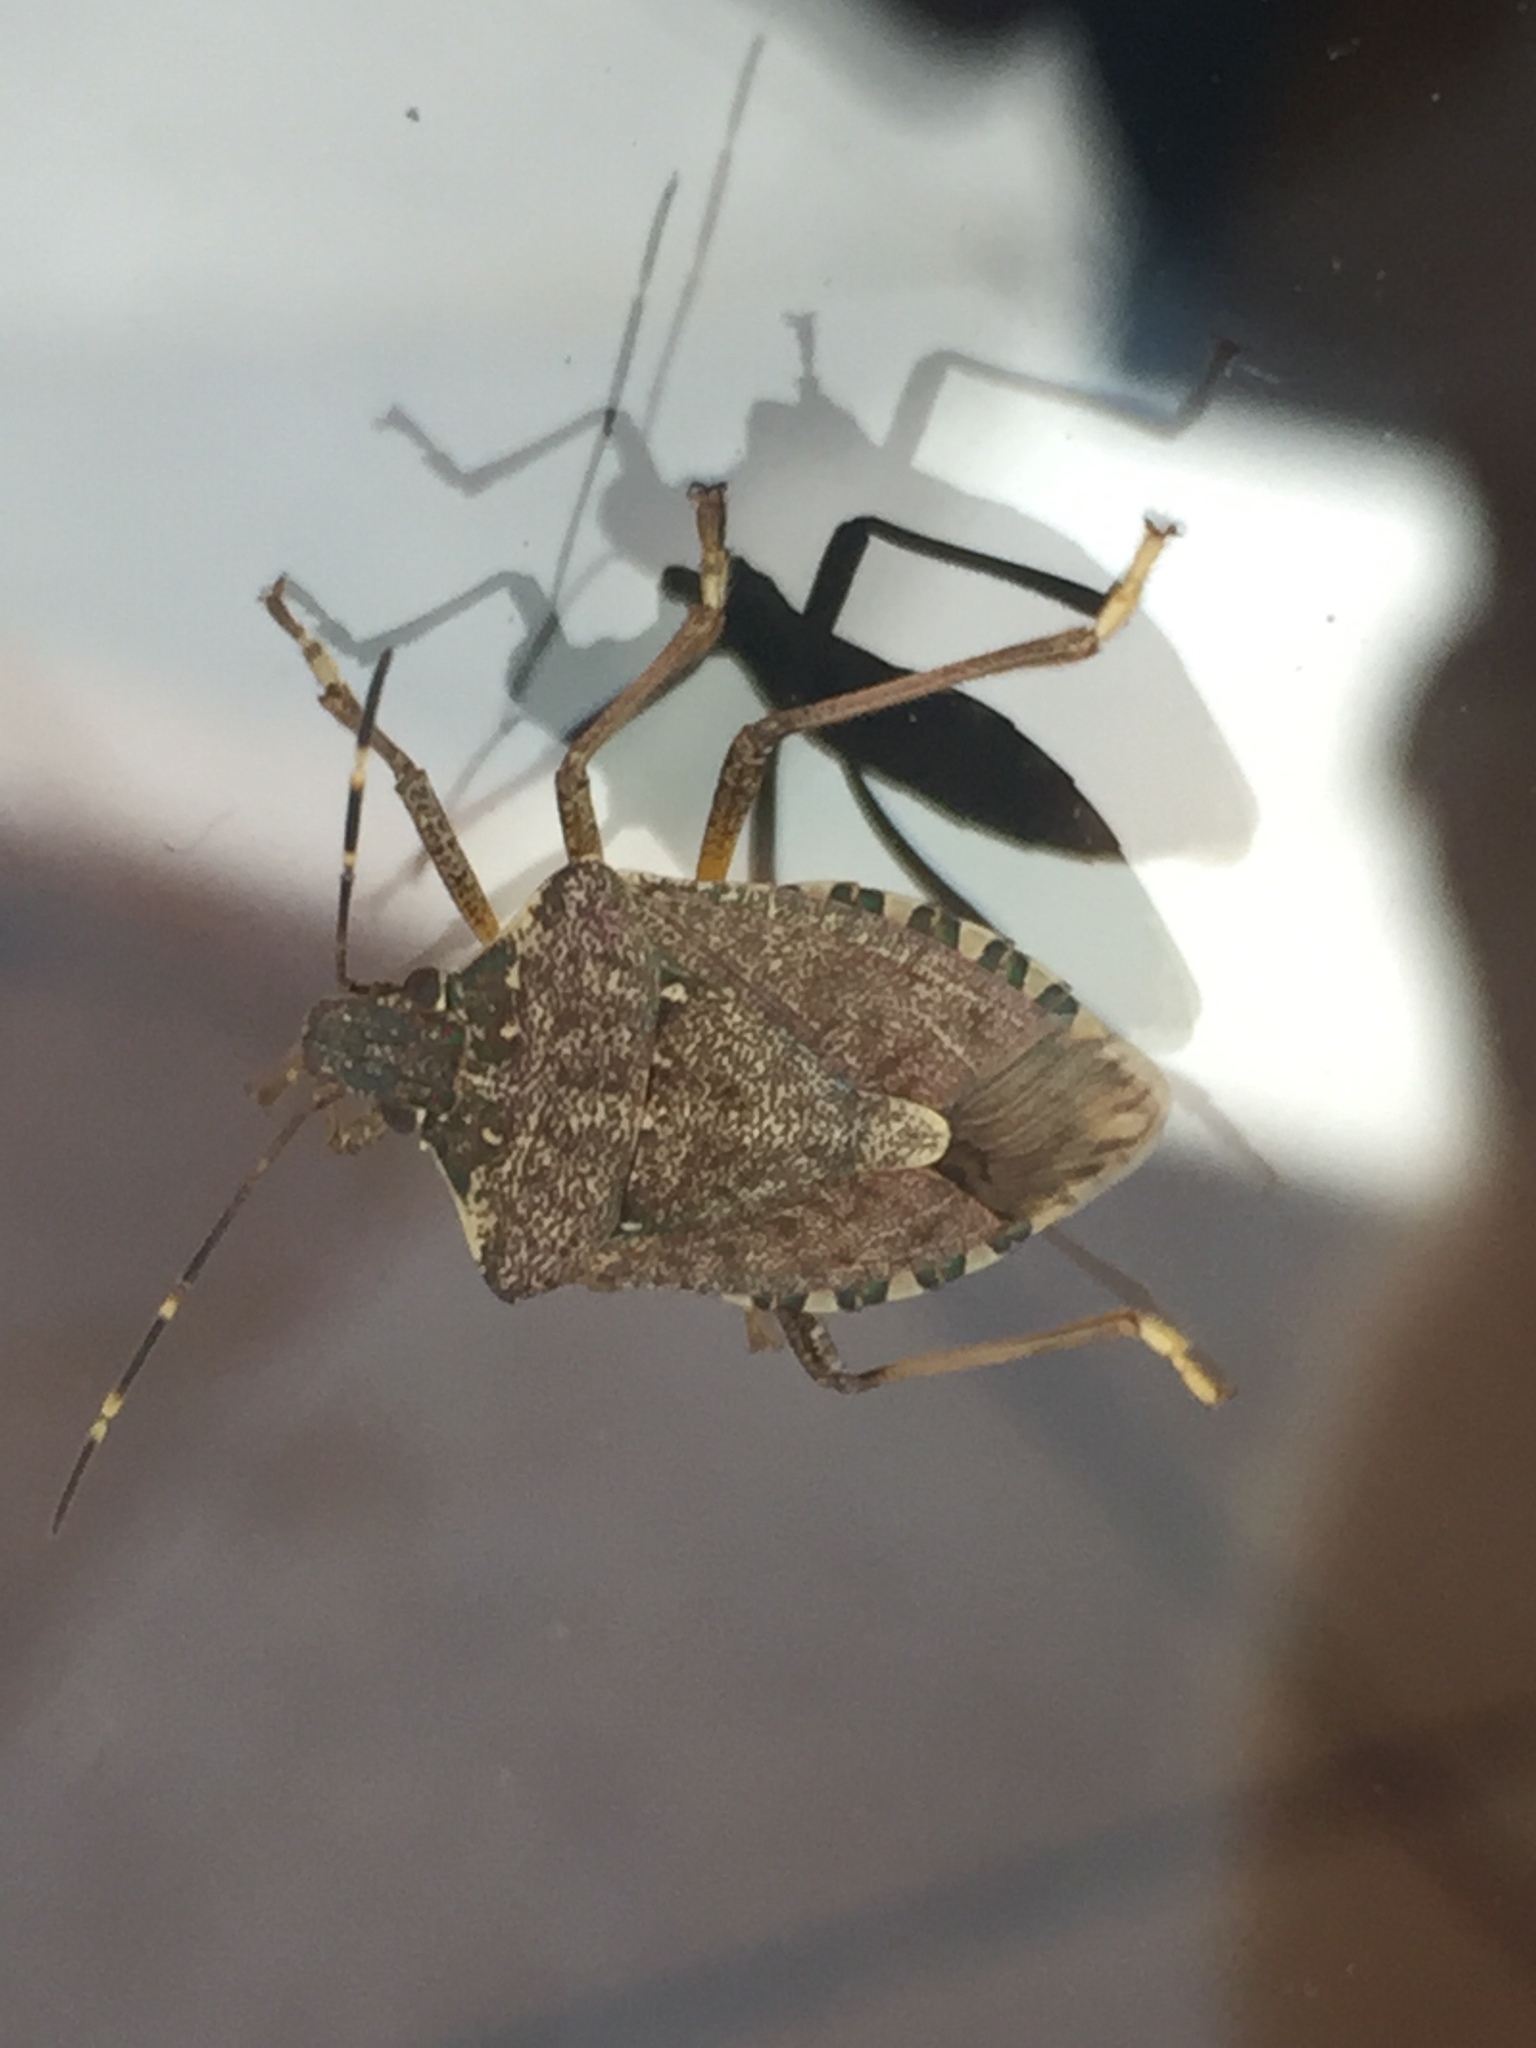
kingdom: Animalia
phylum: Arthropoda
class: Insecta
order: Hemiptera
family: Pentatomidae
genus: Halyomorpha
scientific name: Halyomorpha halys
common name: Brown marmorated stink bug
